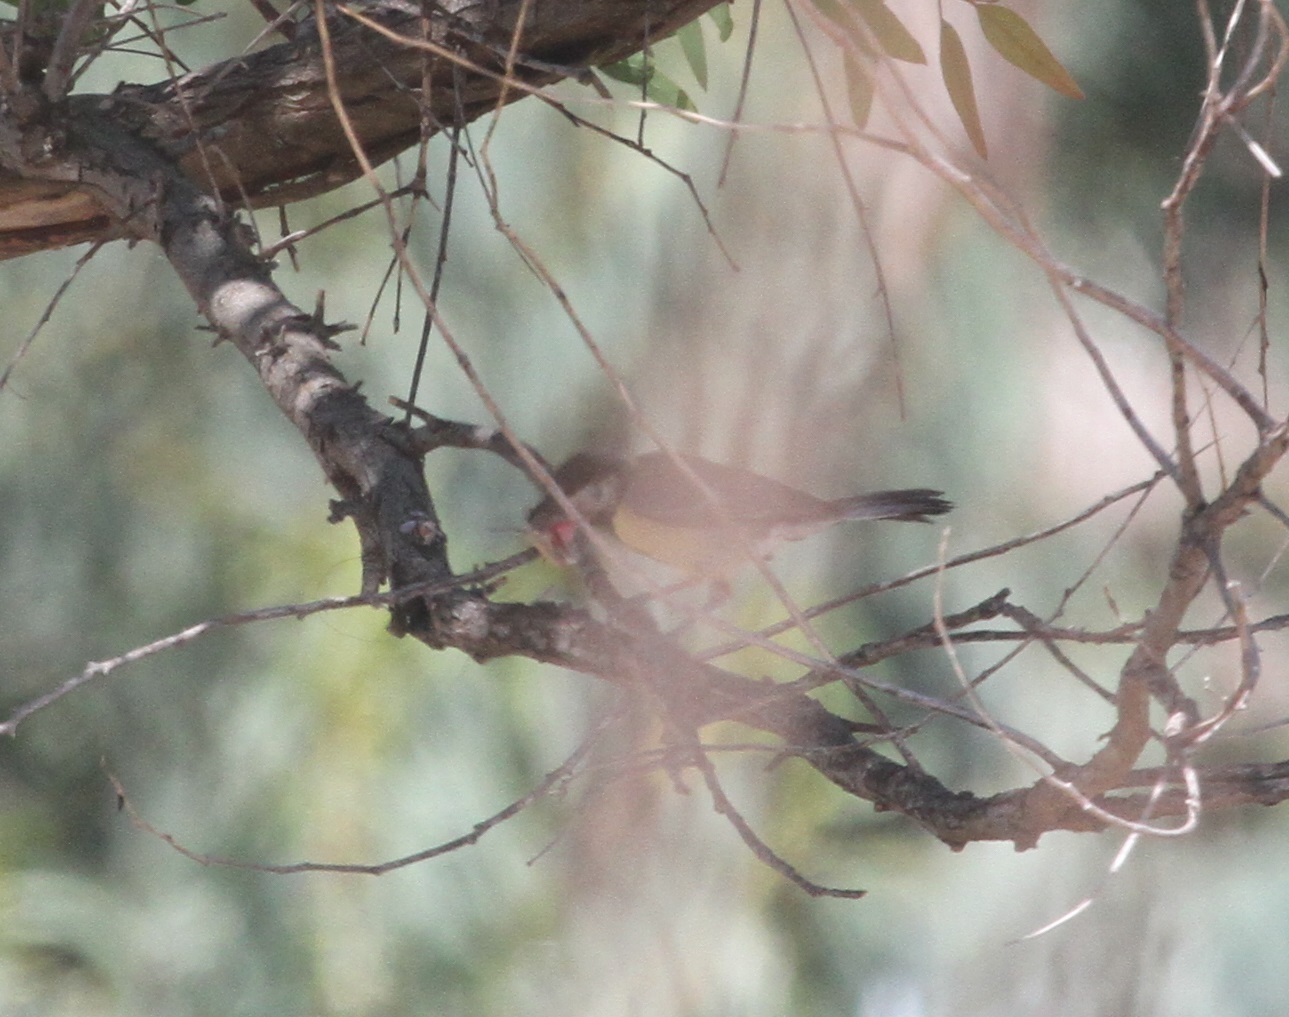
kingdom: Animalia
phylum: Chordata
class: Aves
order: Passeriformes
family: Paridae
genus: Parus
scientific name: Parus major
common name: Great tit
